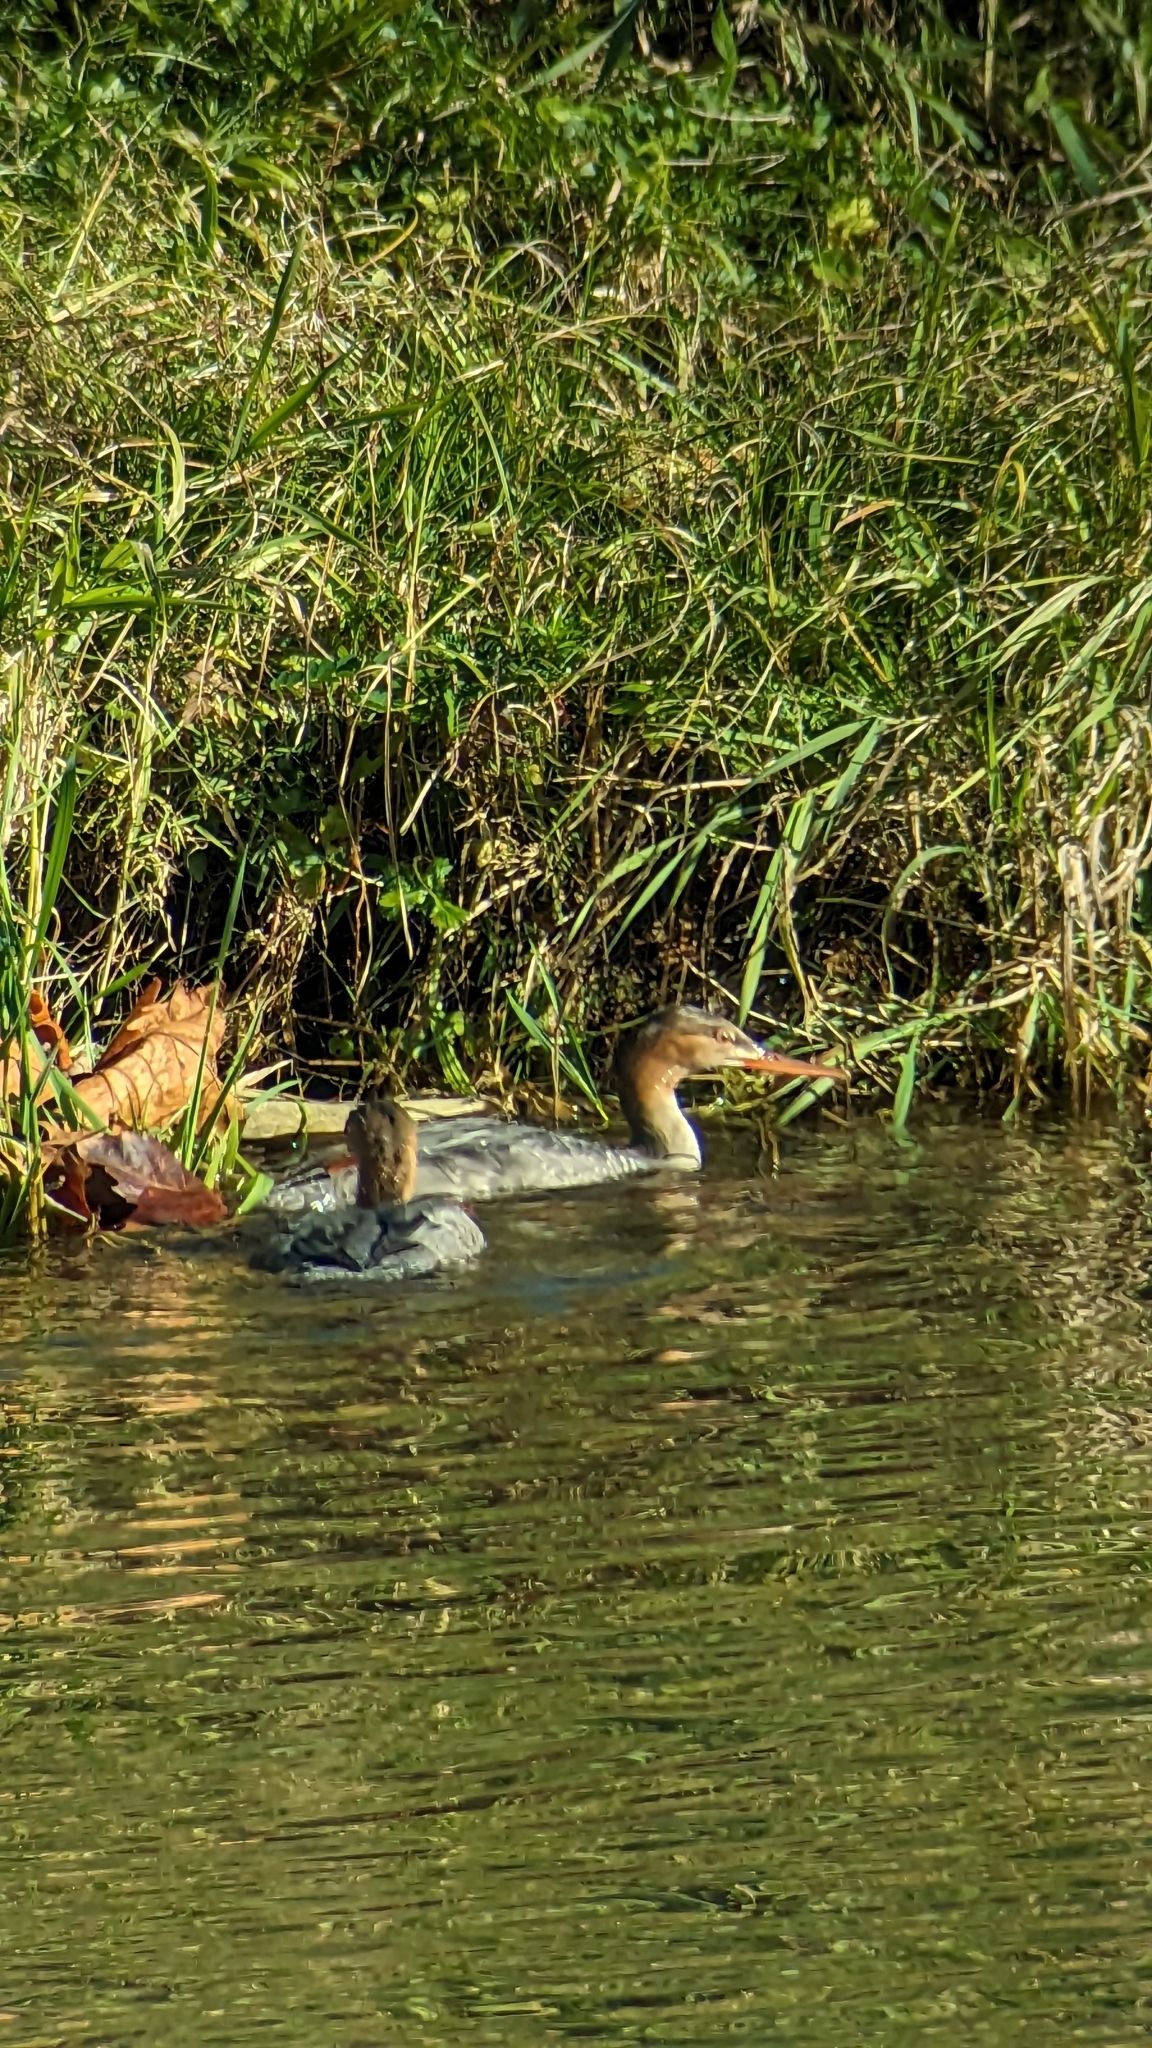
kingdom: Animalia
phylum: Chordata
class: Aves
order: Anseriformes
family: Anatidae
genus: Mergus
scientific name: Mergus serrator
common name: Red-breasted merganser
